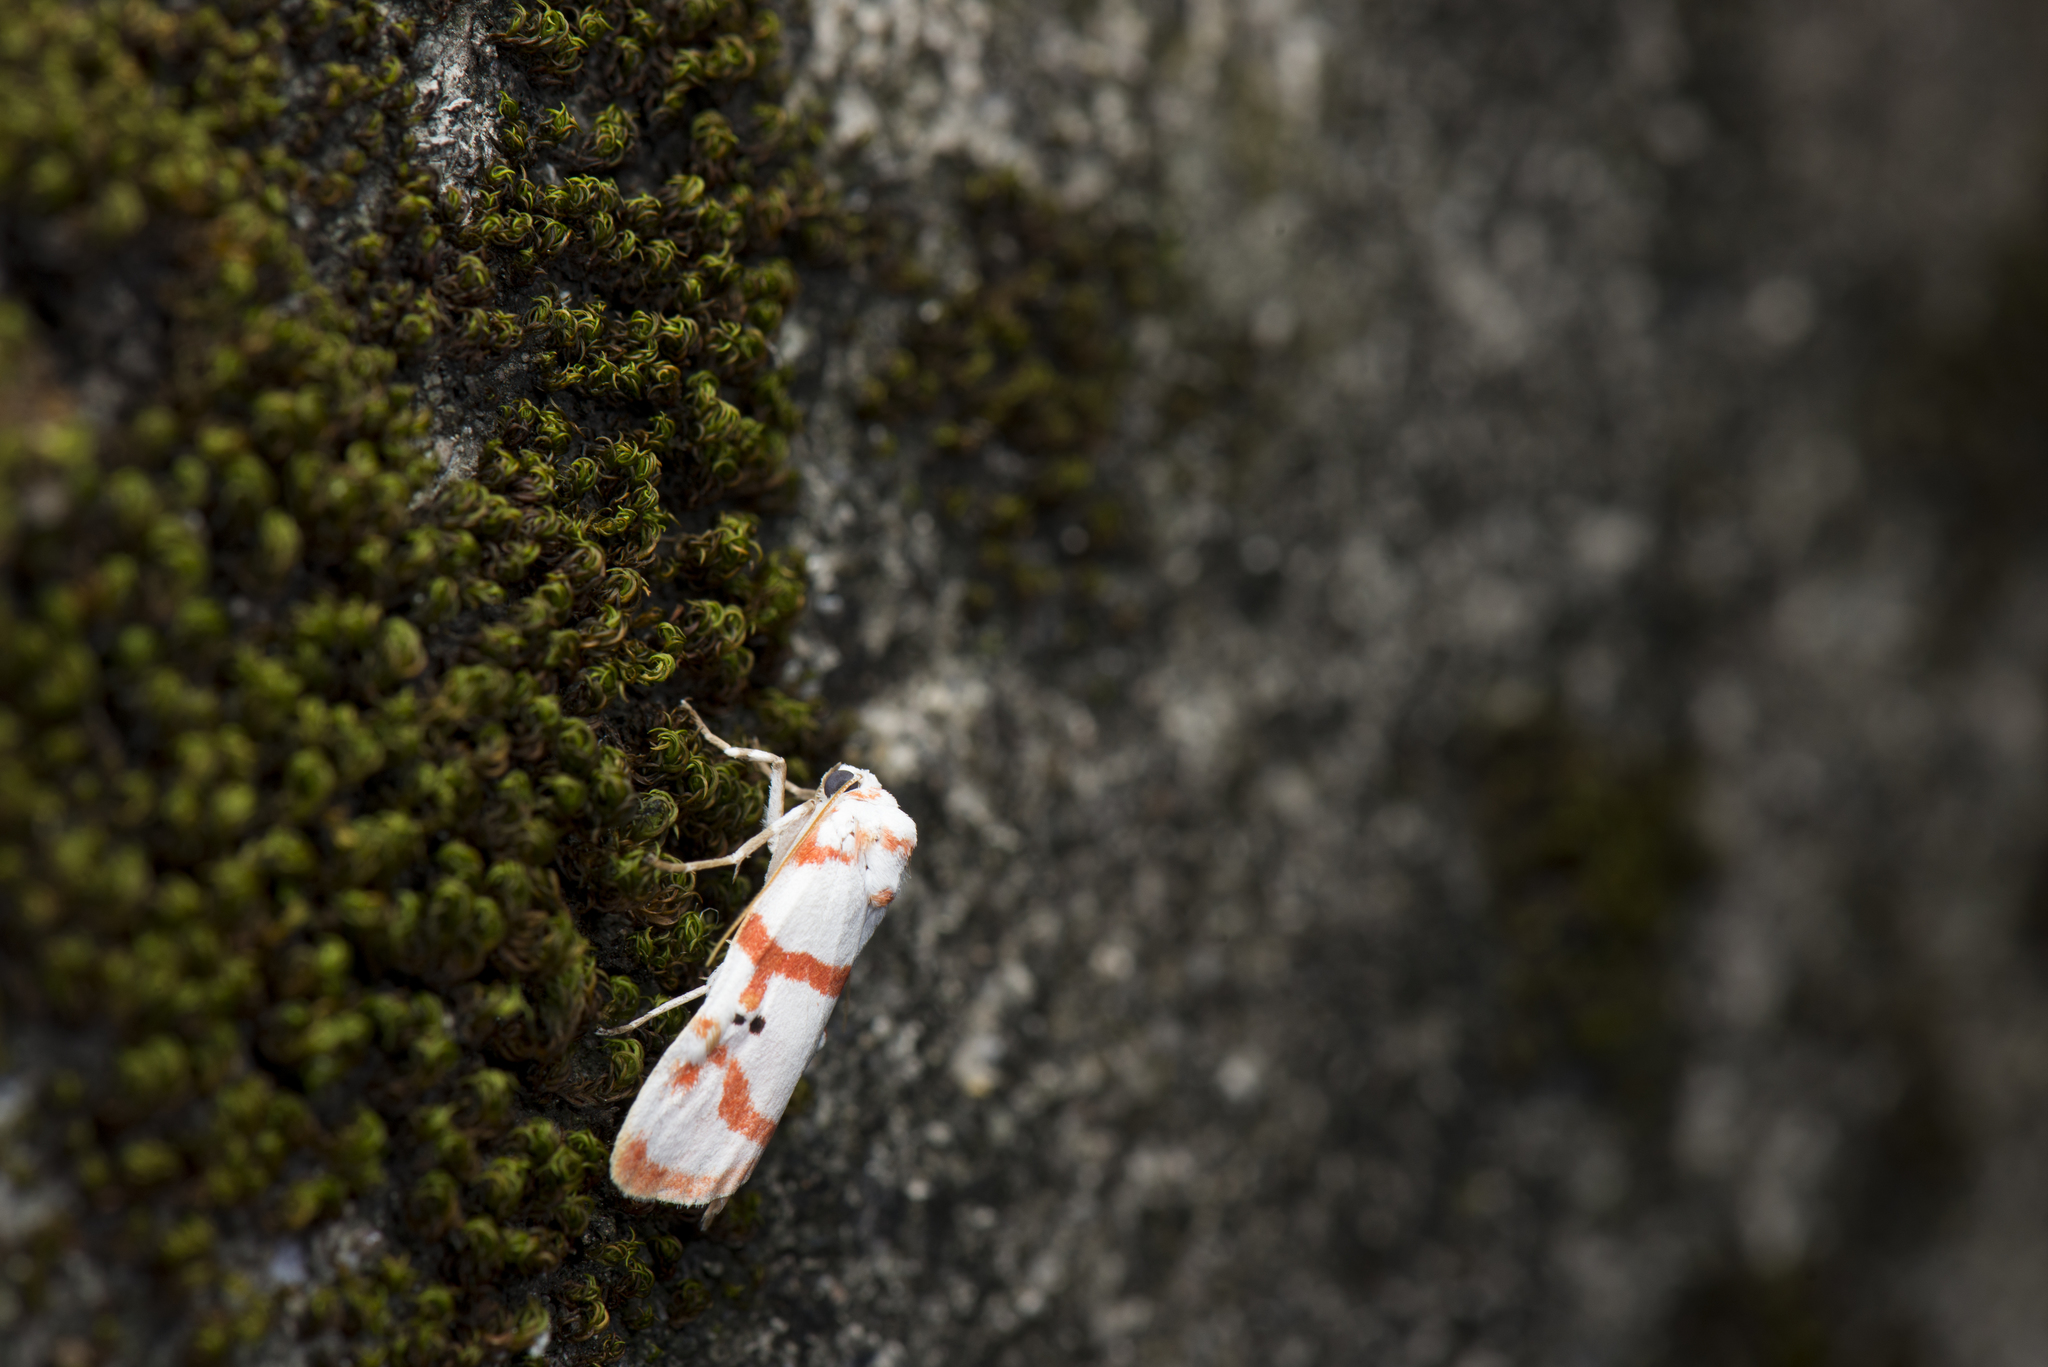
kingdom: Animalia
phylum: Arthropoda
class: Insecta
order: Lepidoptera
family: Erebidae
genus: Cyana
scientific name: Cyana hamata
